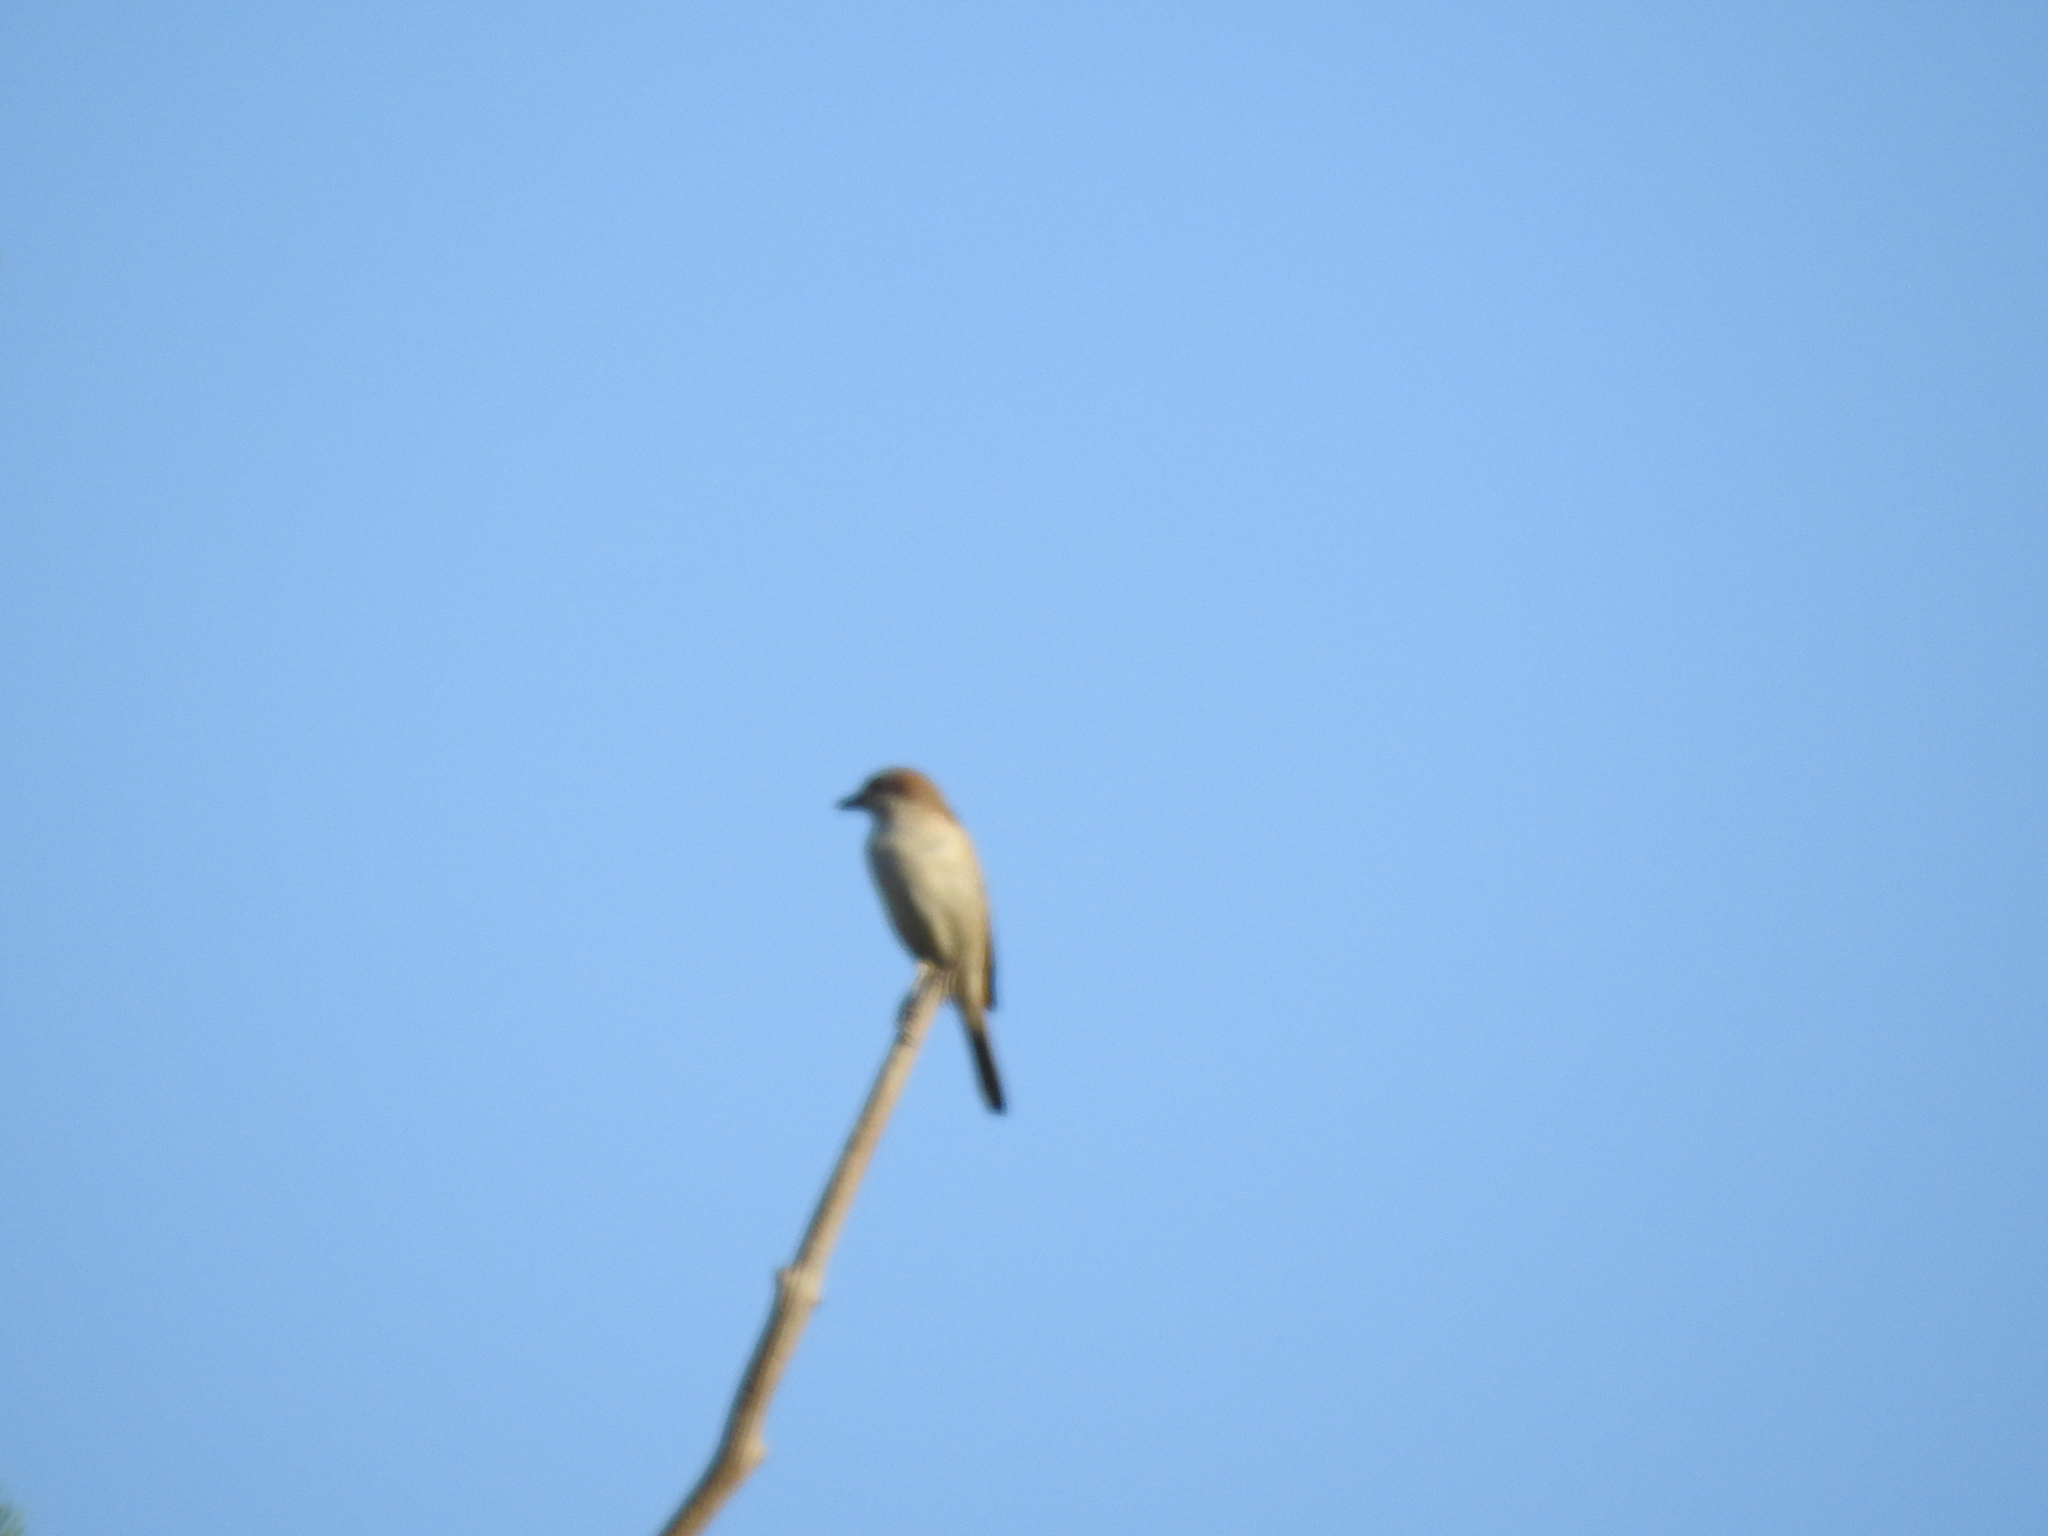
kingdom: Animalia
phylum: Chordata
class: Aves
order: Passeriformes
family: Laniidae
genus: Lanius
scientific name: Lanius collurio
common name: Red-backed shrike
